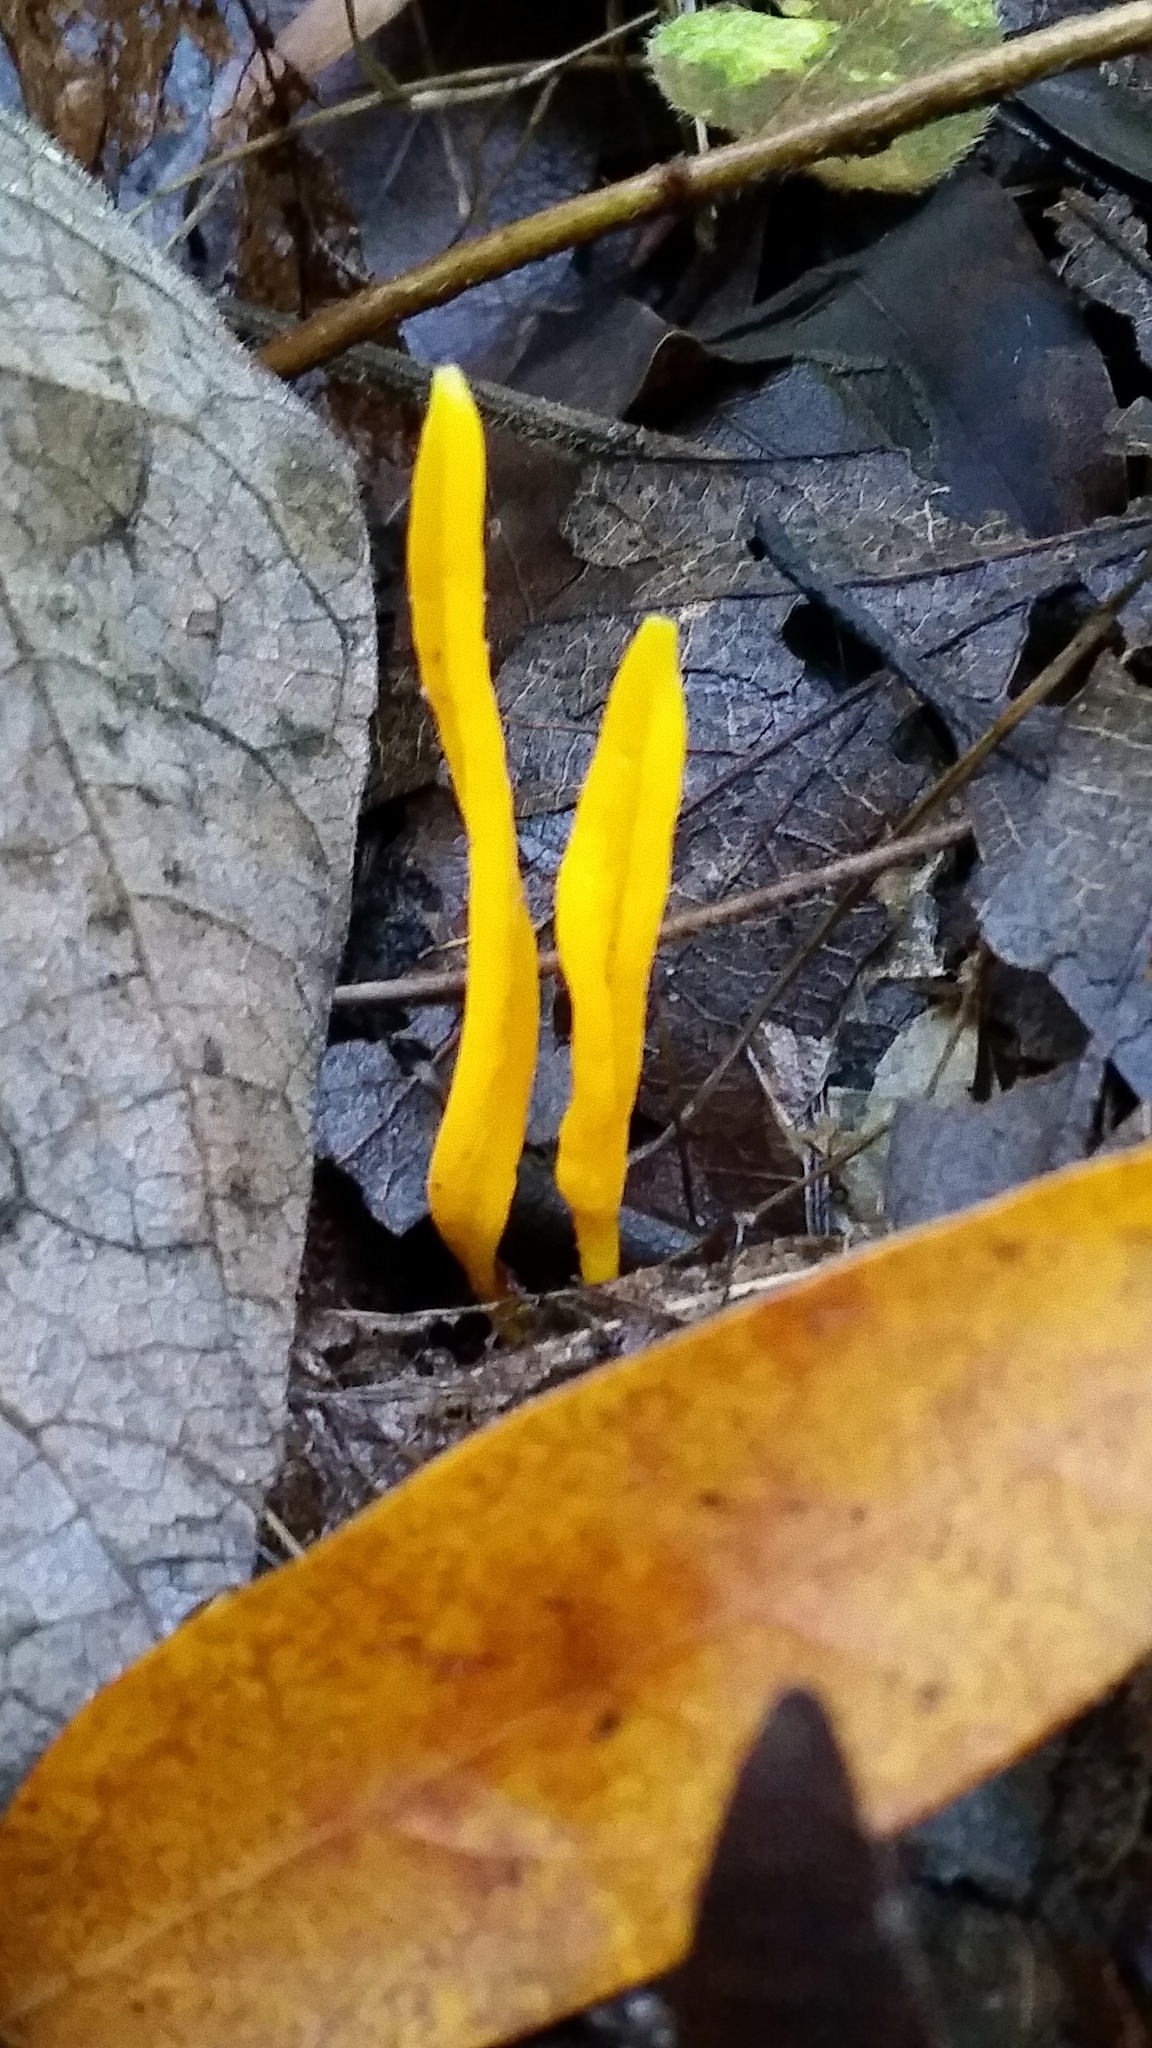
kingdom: Fungi
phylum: Basidiomycota
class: Agaricomycetes
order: Agaricales
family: Clavariaceae
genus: Clavulinopsis
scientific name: Clavulinopsis laeticolor
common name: Handsome club
